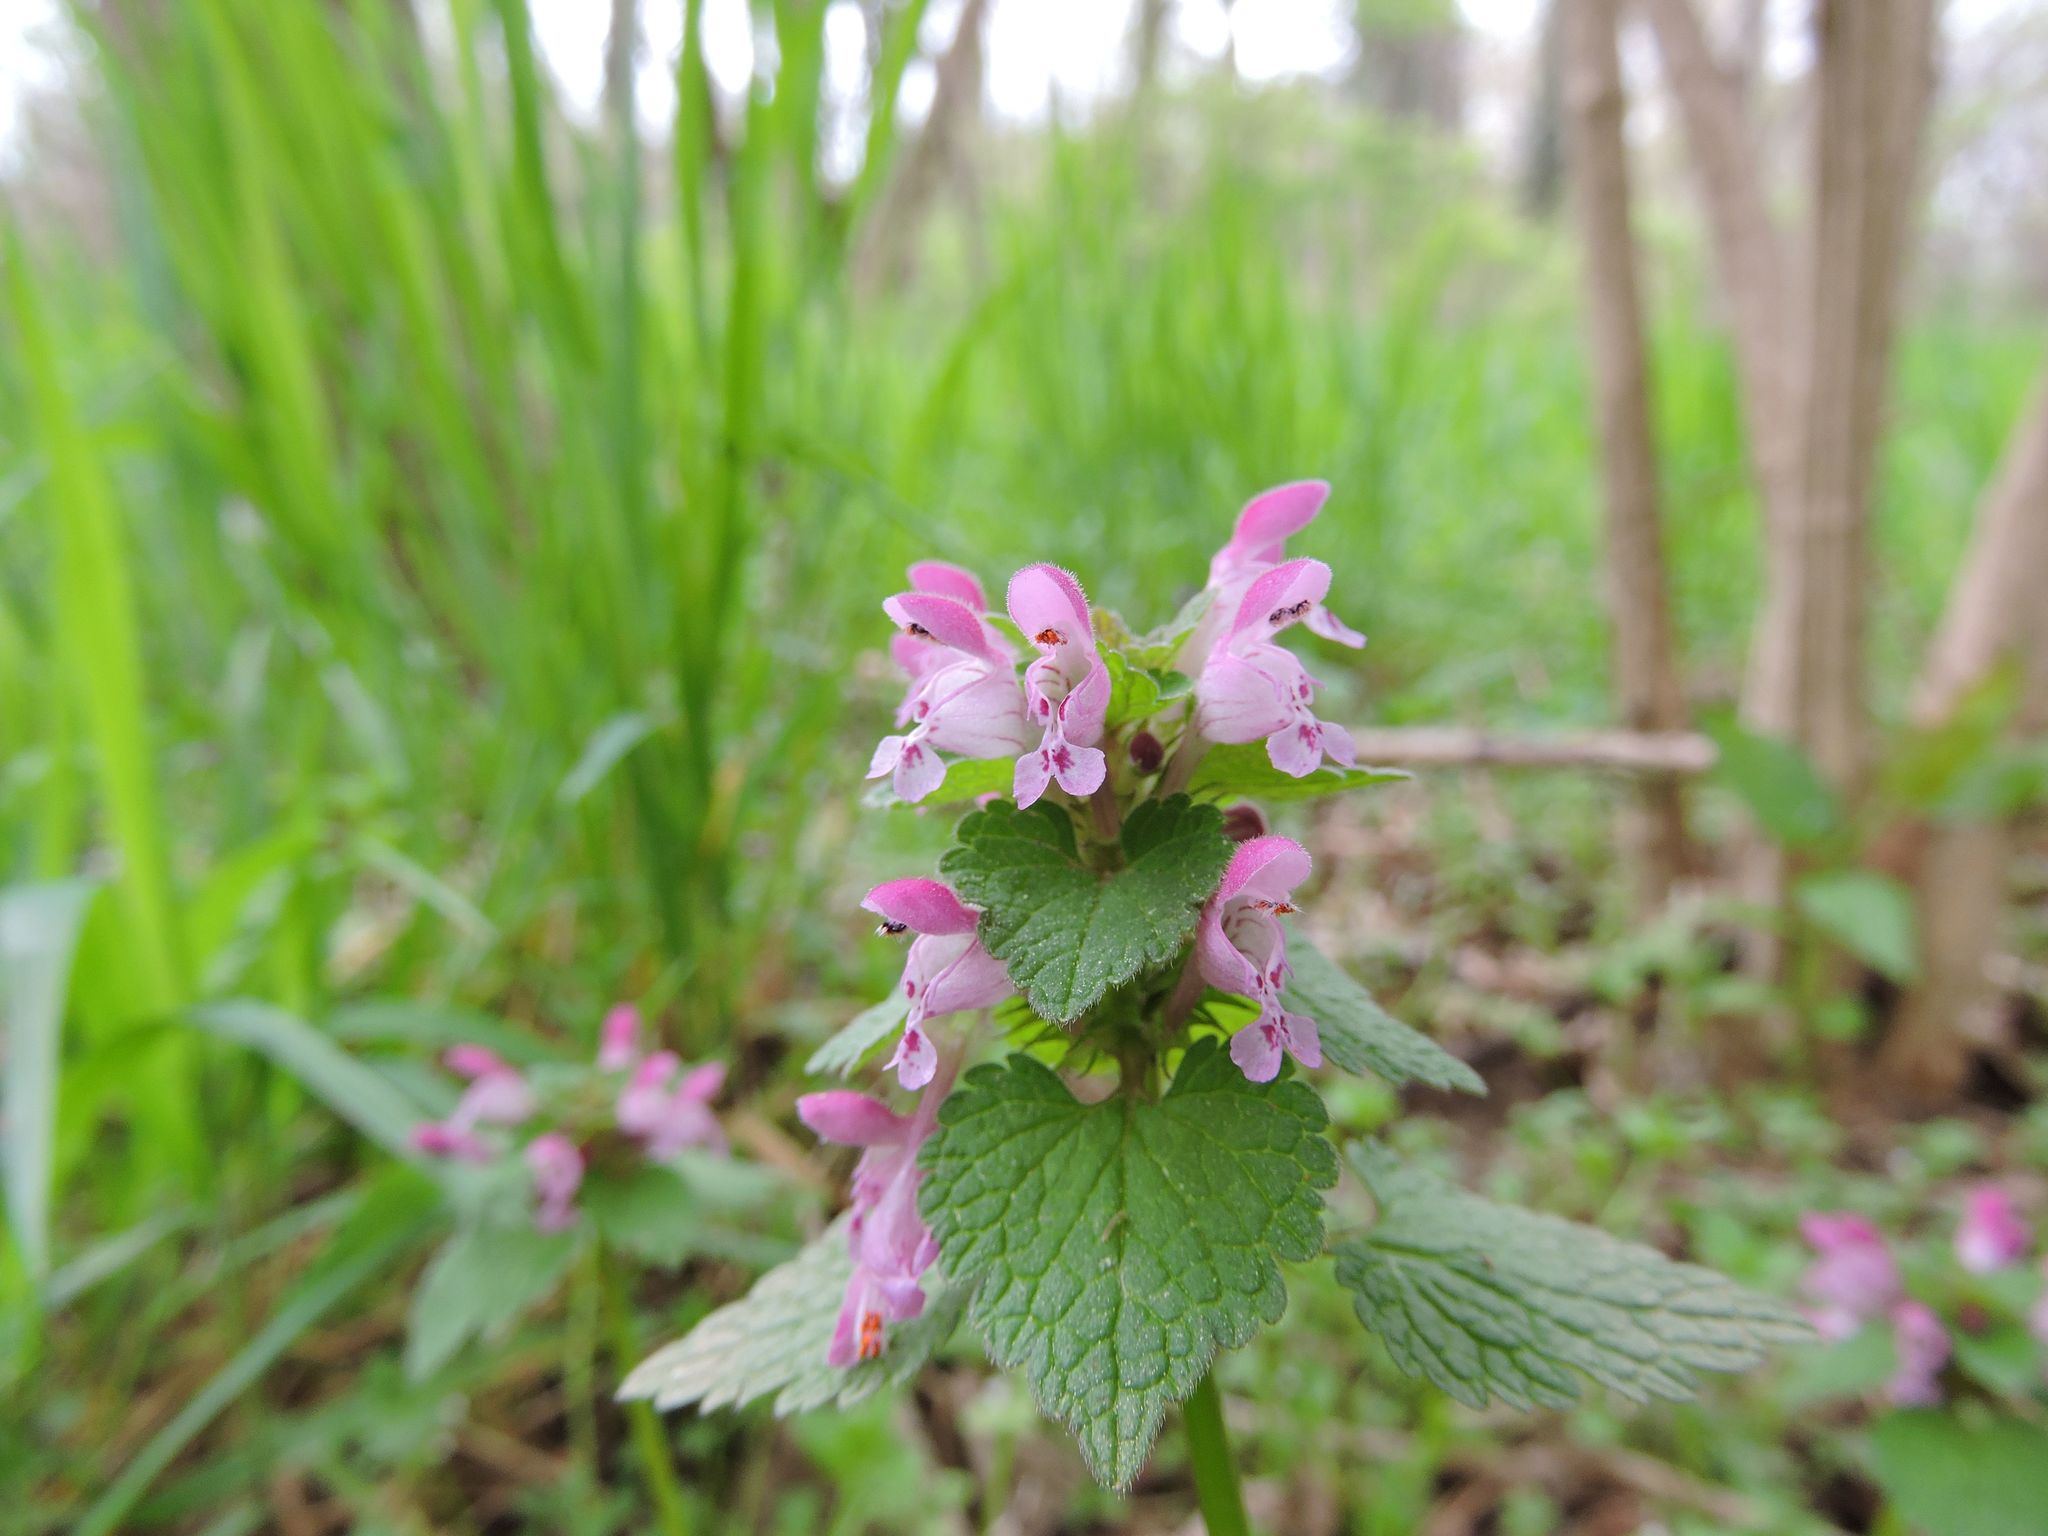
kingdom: Plantae
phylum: Tracheophyta
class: Magnoliopsida
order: Lamiales
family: Lamiaceae
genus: Lamium
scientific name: Lamium purpureum
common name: Red dead-nettle
